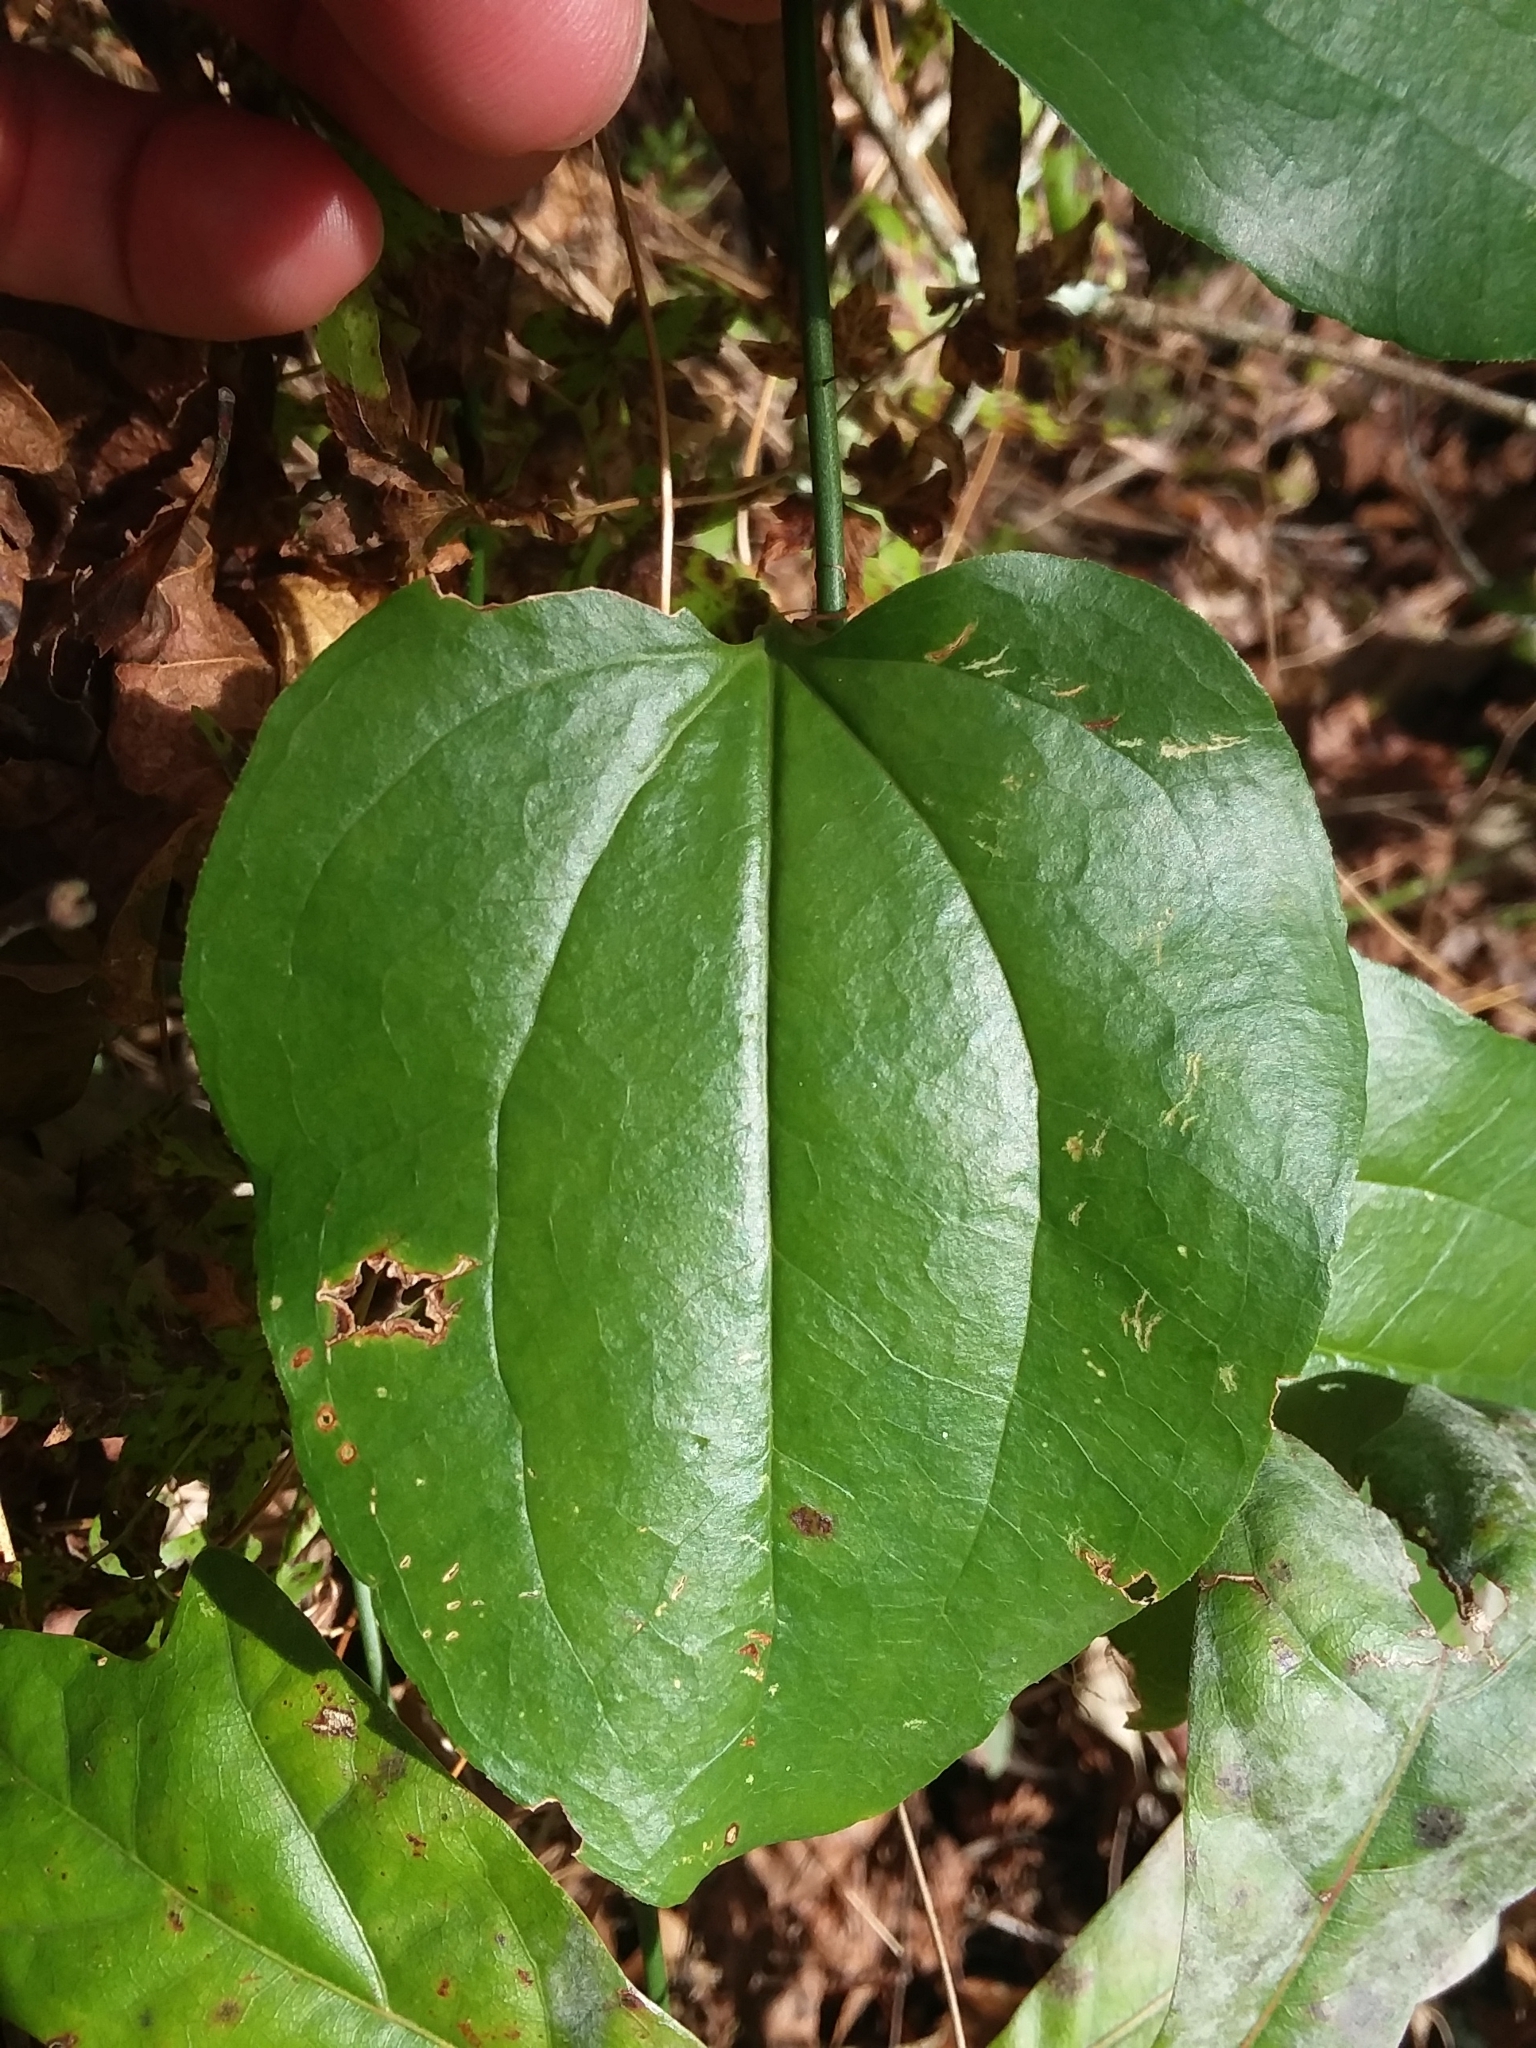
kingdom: Plantae
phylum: Tracheophyta
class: Liliopsida
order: Liliales
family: Smilacaceae
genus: Smilax
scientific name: Smilax tamnoides
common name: Hellfetter
